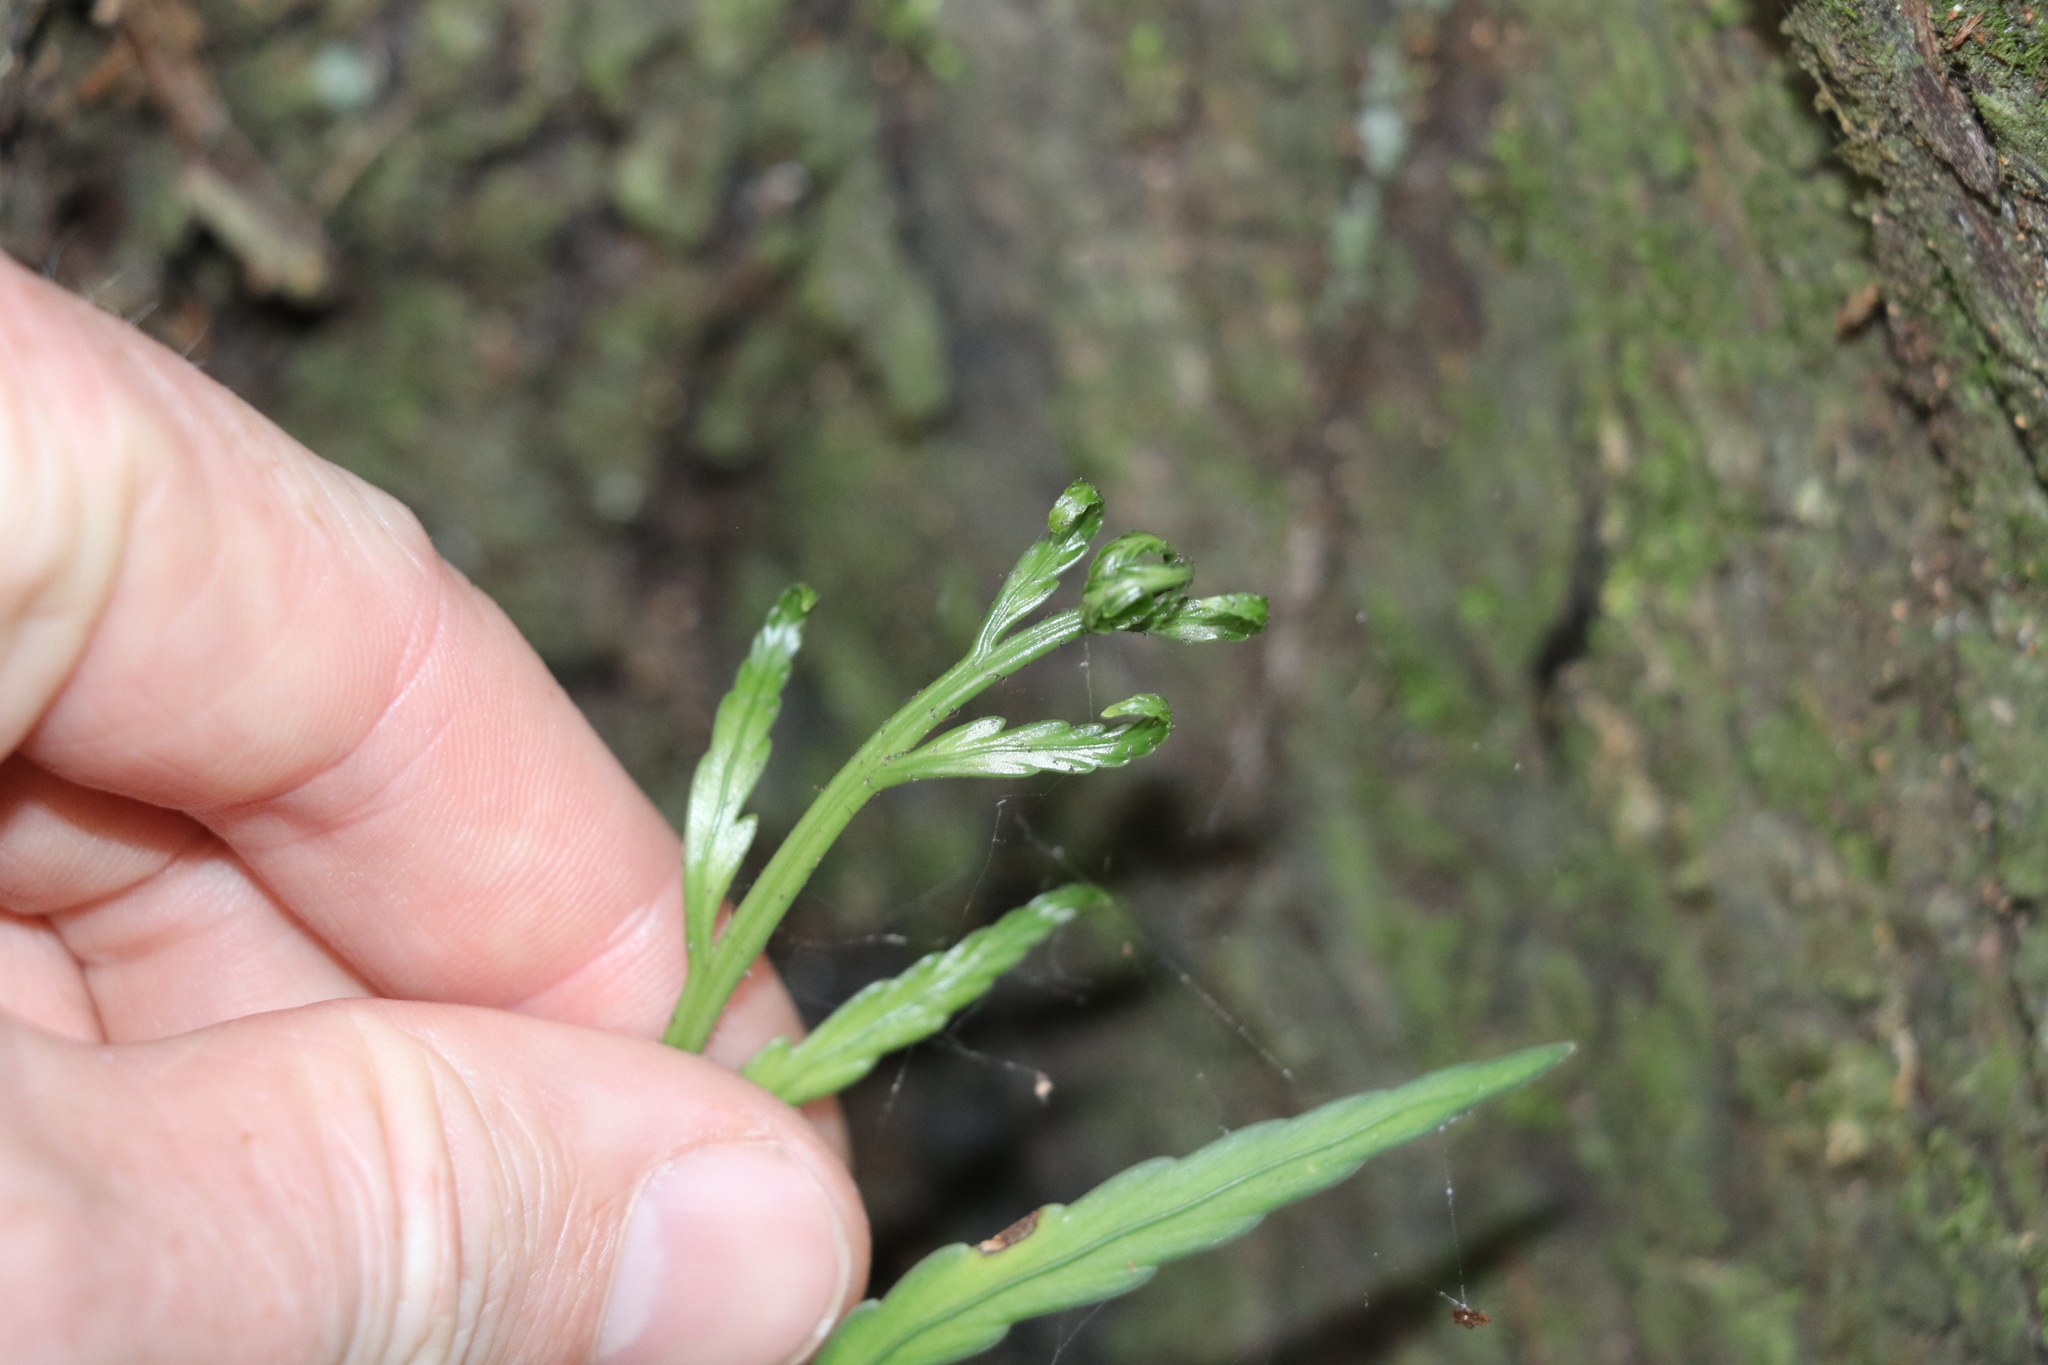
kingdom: Plantae
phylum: Tracheophyta
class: Polypodiopsida
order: Polypodiales
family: Aspleniaceae
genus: Asplenium
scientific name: Asplenium flaccidum
